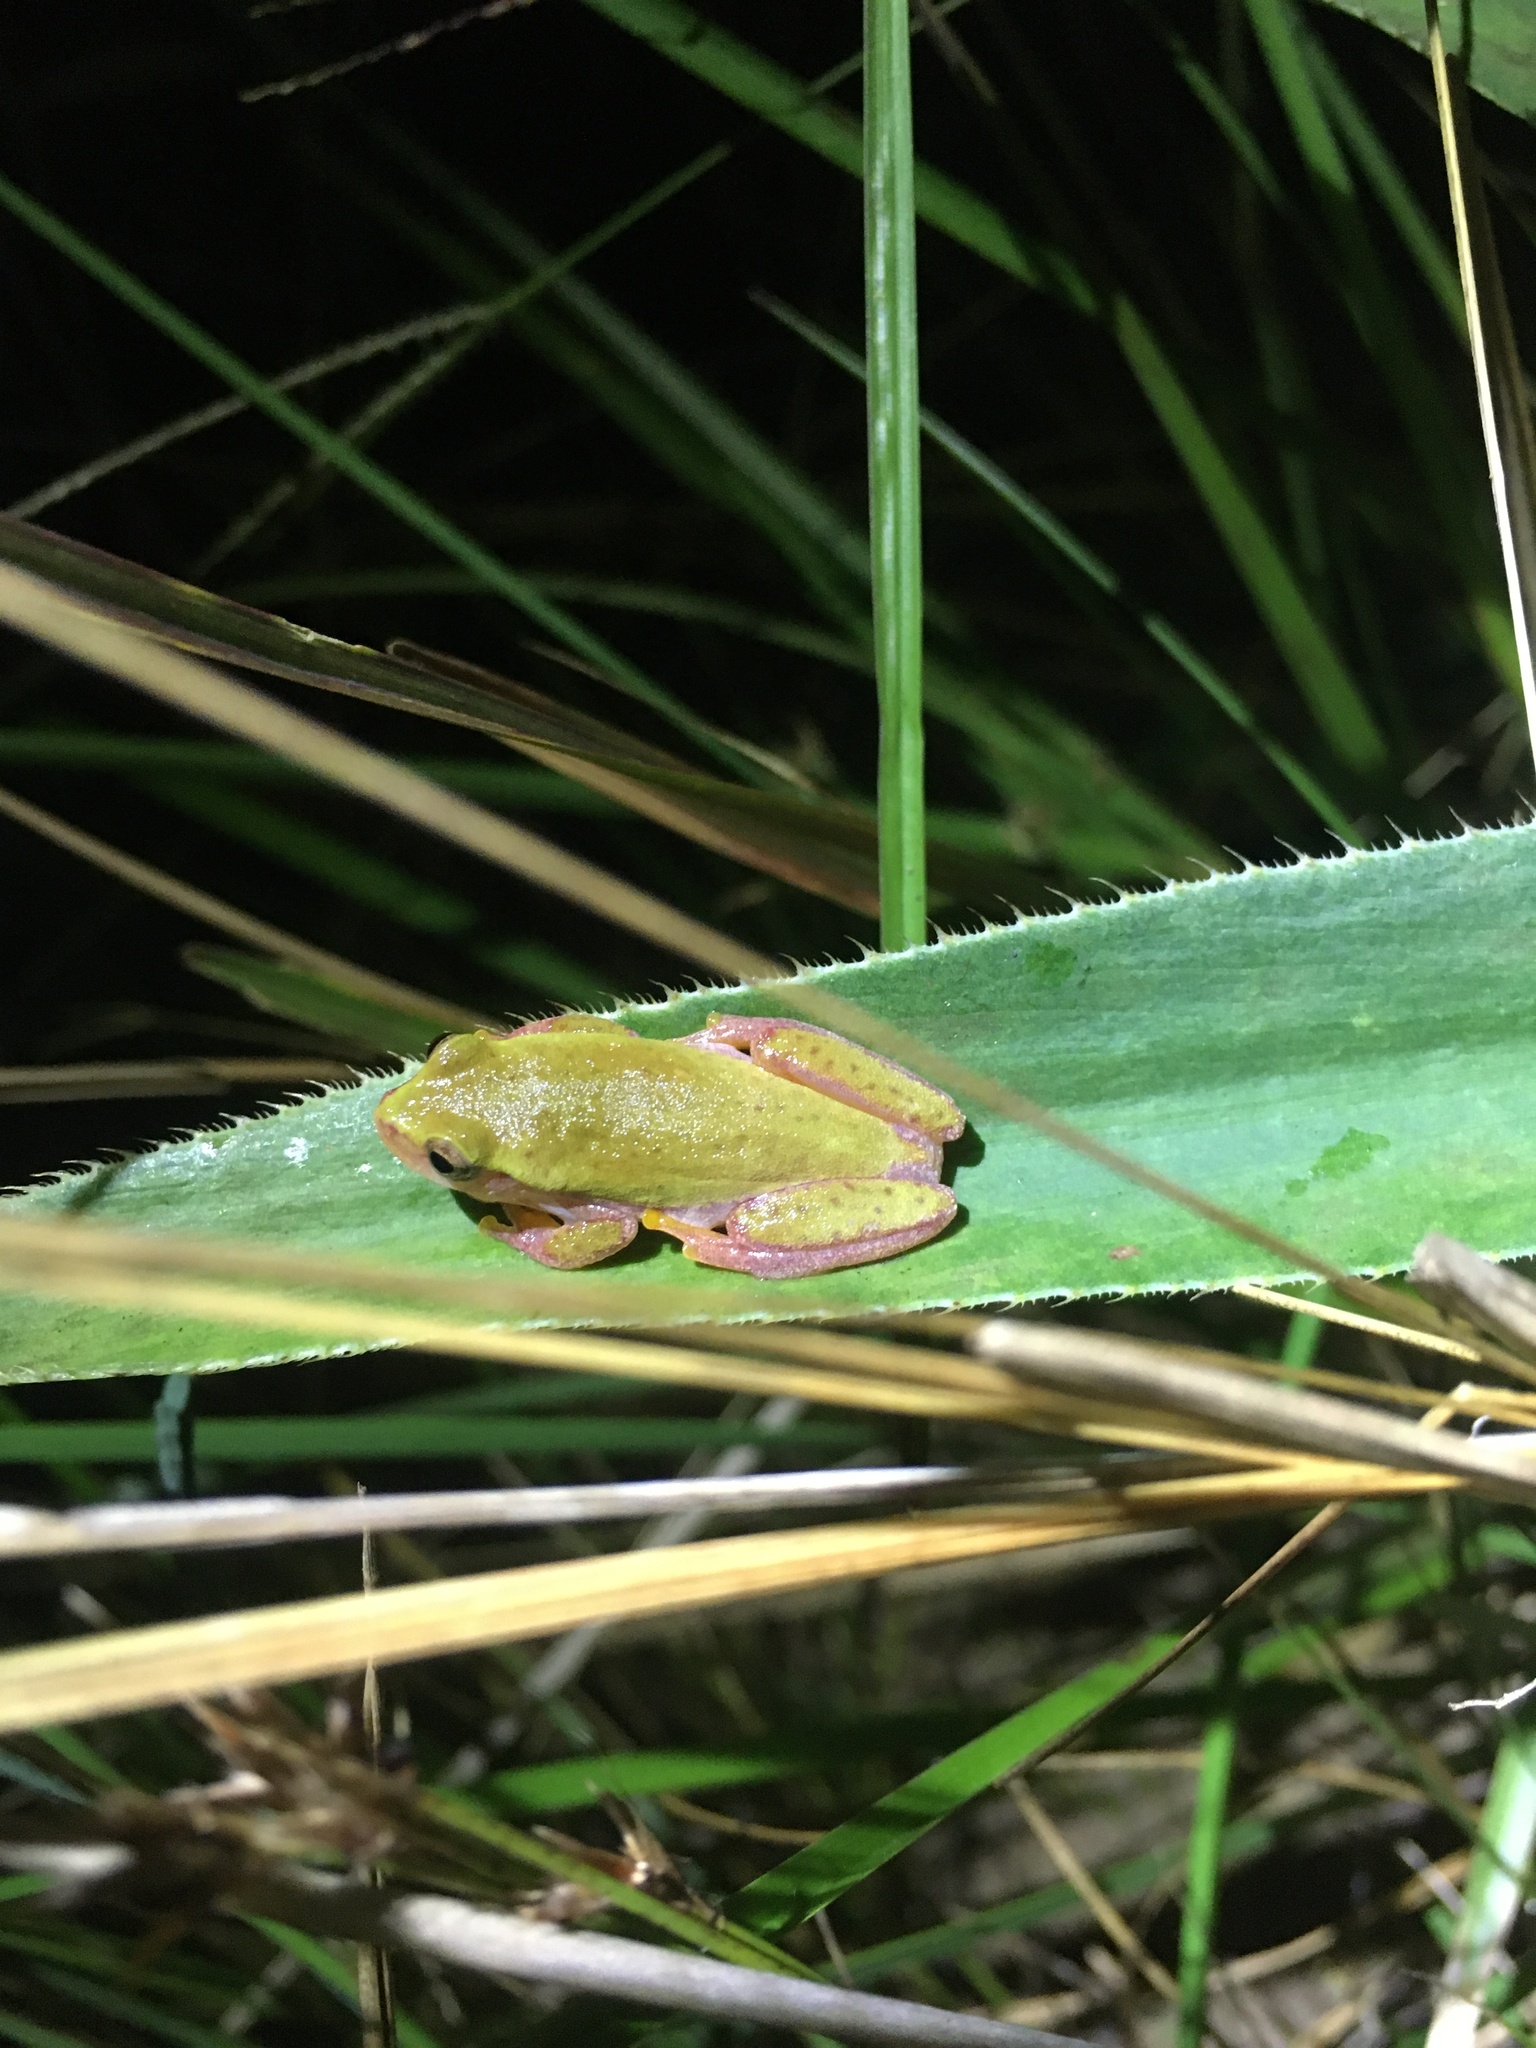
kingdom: Animalia
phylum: Chordata
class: Amphibia
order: Anura
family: Hylidae
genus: Dendropsophus
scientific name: Dendropsophus elianeae
